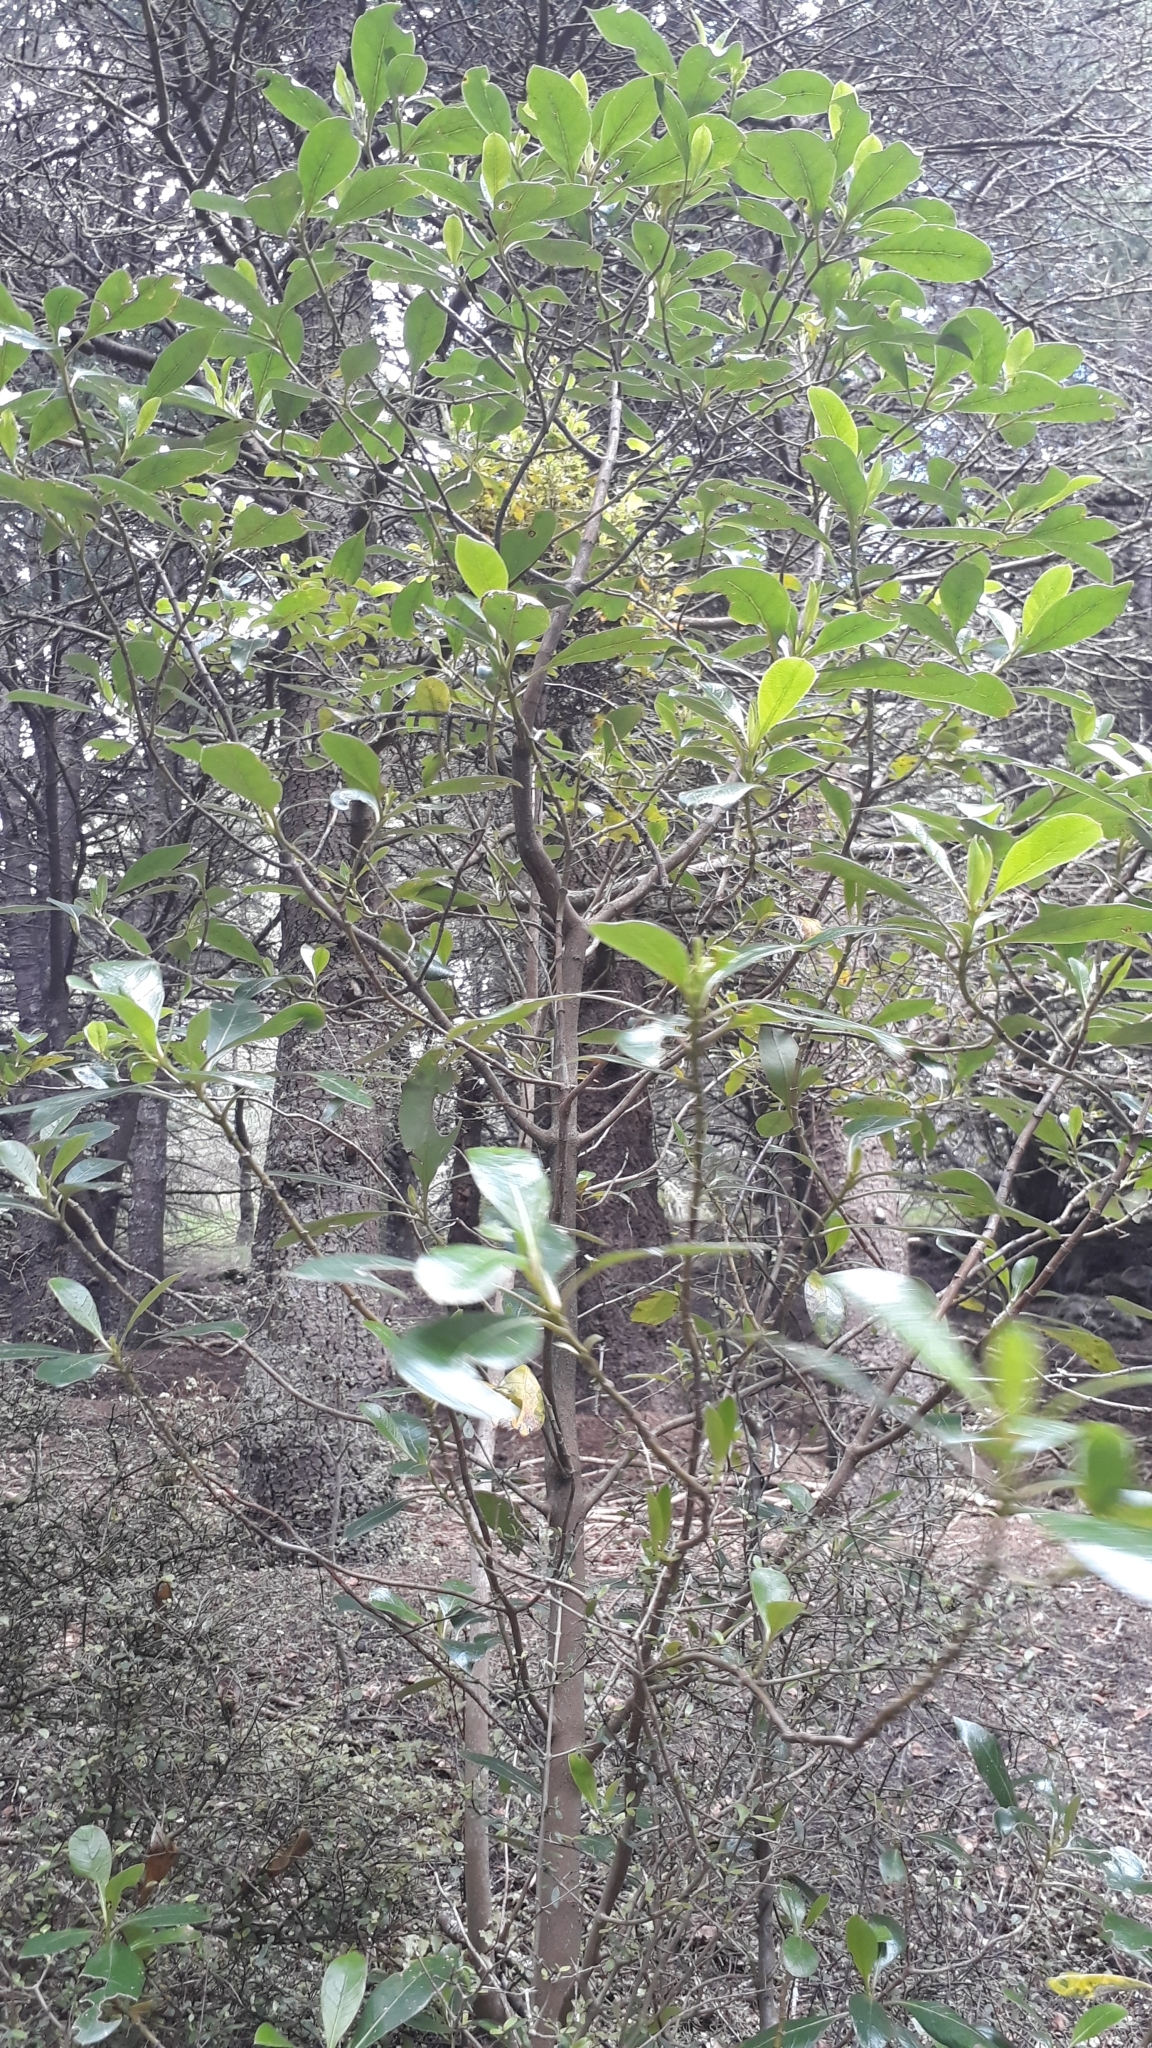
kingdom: Plantae
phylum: Tracheophyta
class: Magnoliopsida
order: Gentianales
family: Rubiaceae
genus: Coprosma
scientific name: Coprosma lucida
